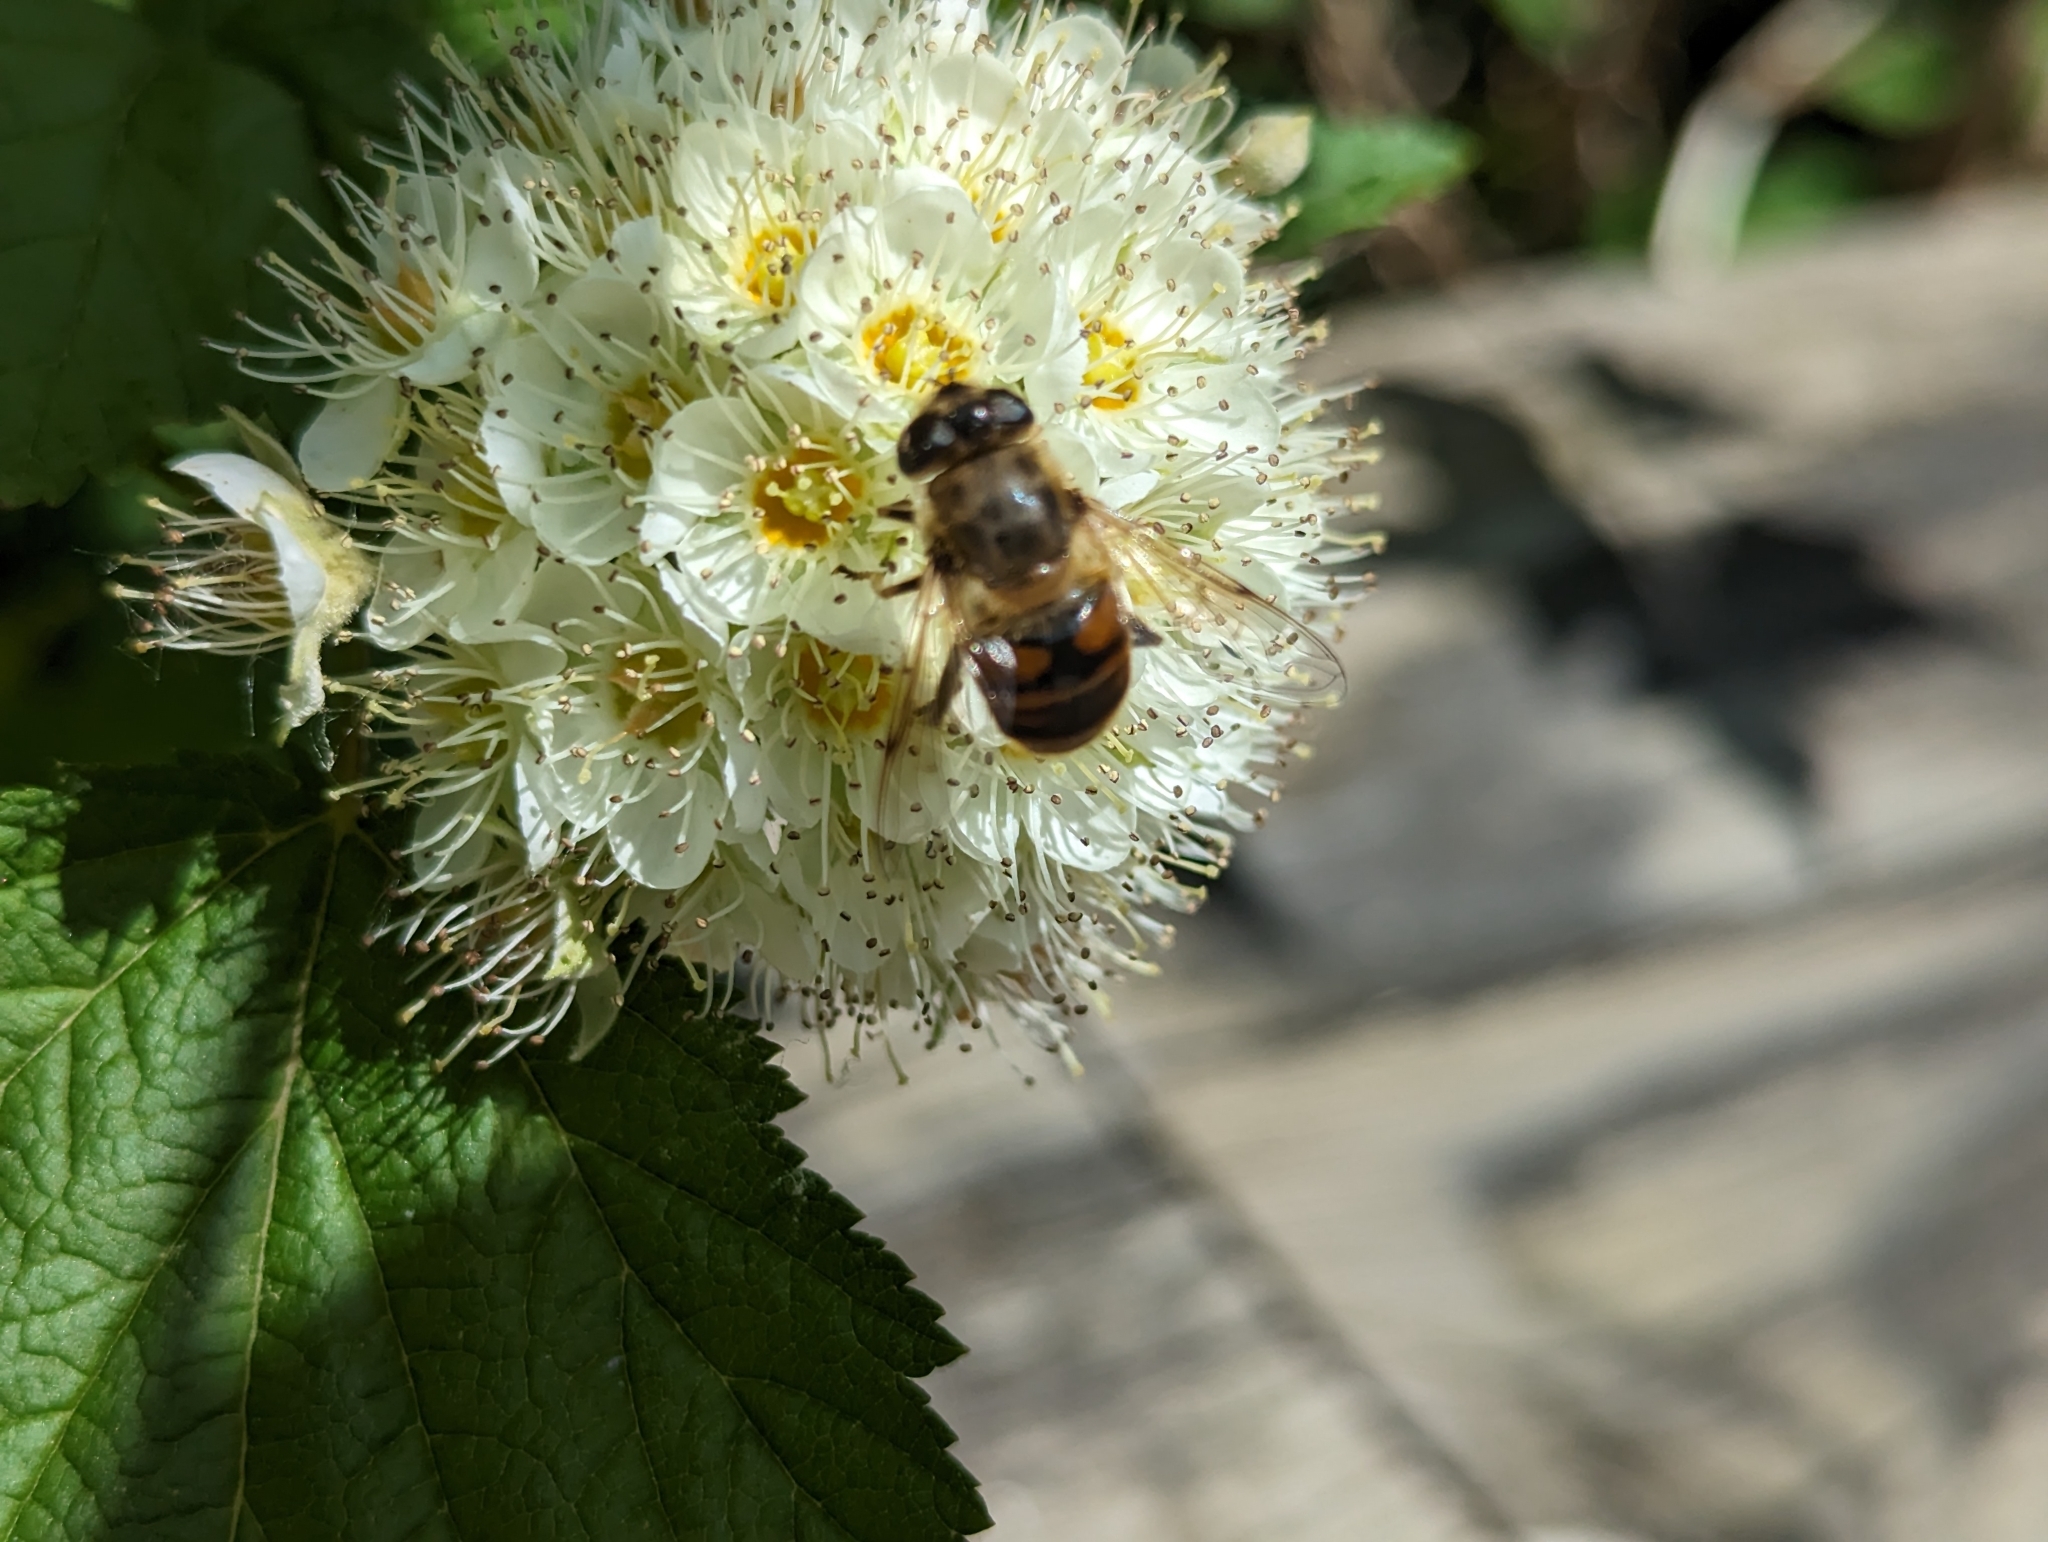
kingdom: Animalia
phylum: Arthropoda
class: Insecta
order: Diptera
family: Syrphidae
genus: Eristalis
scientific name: Eristalis tenax
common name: Drone fly
